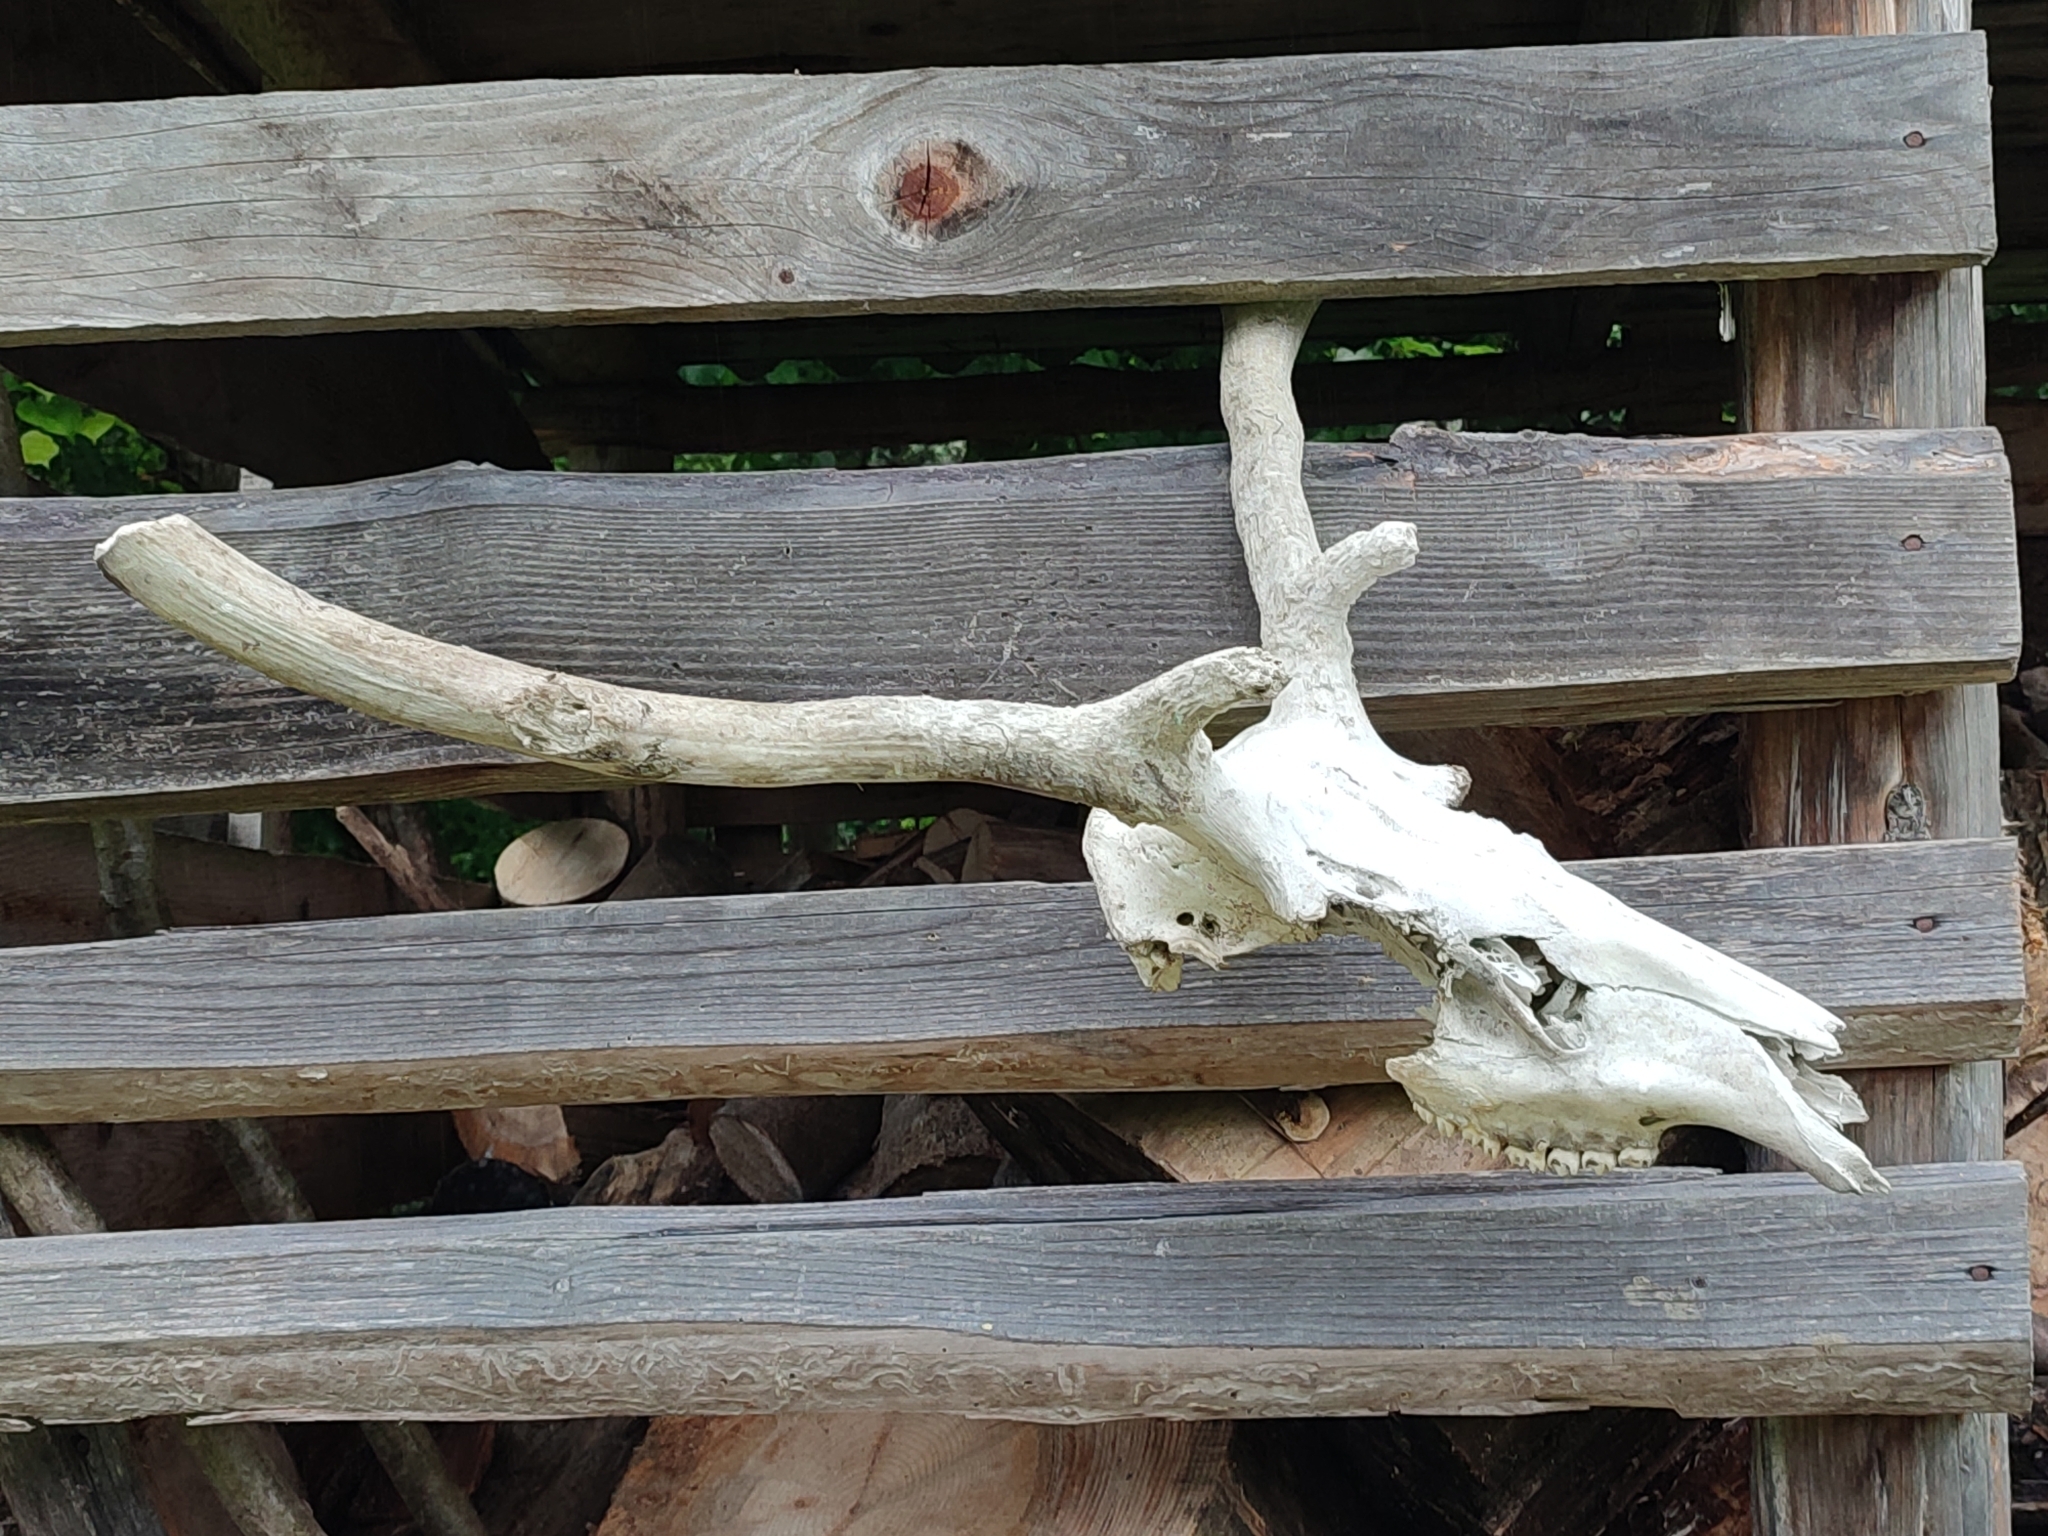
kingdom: Animalia
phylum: Chordata
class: Mammalia
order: Artiodactyla
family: Cervidae
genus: Cervus
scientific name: Cervus elaphus
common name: Red deer
